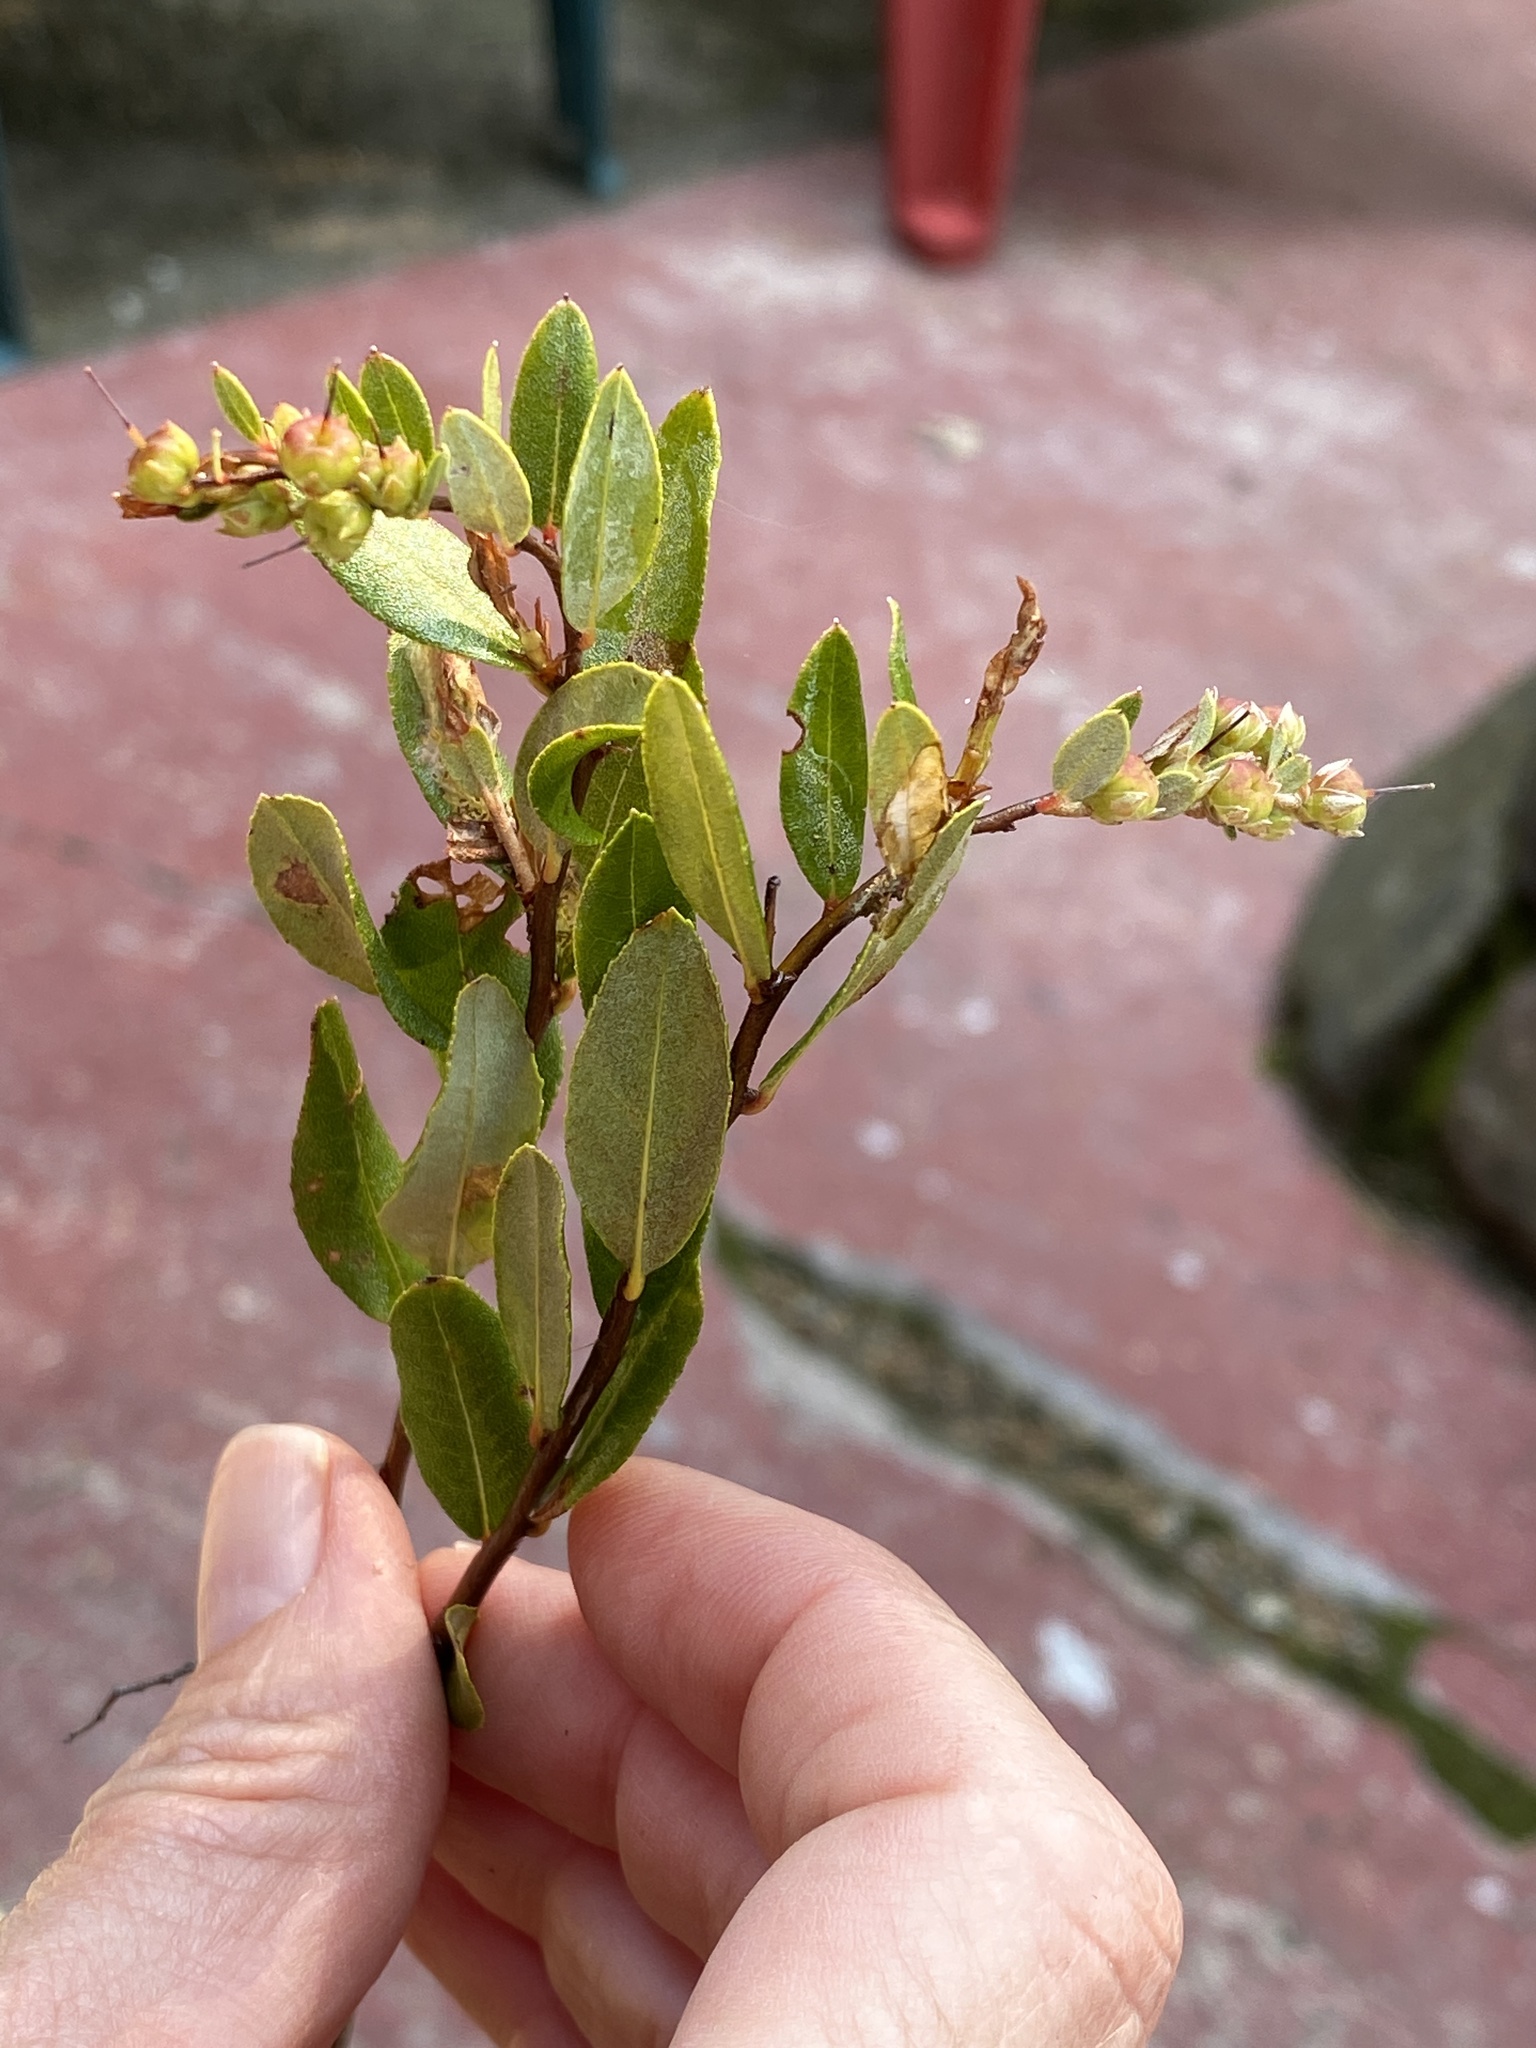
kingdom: Plantae
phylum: Tracheophyta
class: Magnoliopsida
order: Ericales
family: Ericaceae
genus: Chamaedaphne
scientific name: Chamaedaphne calyculata
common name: Leatherleaf
